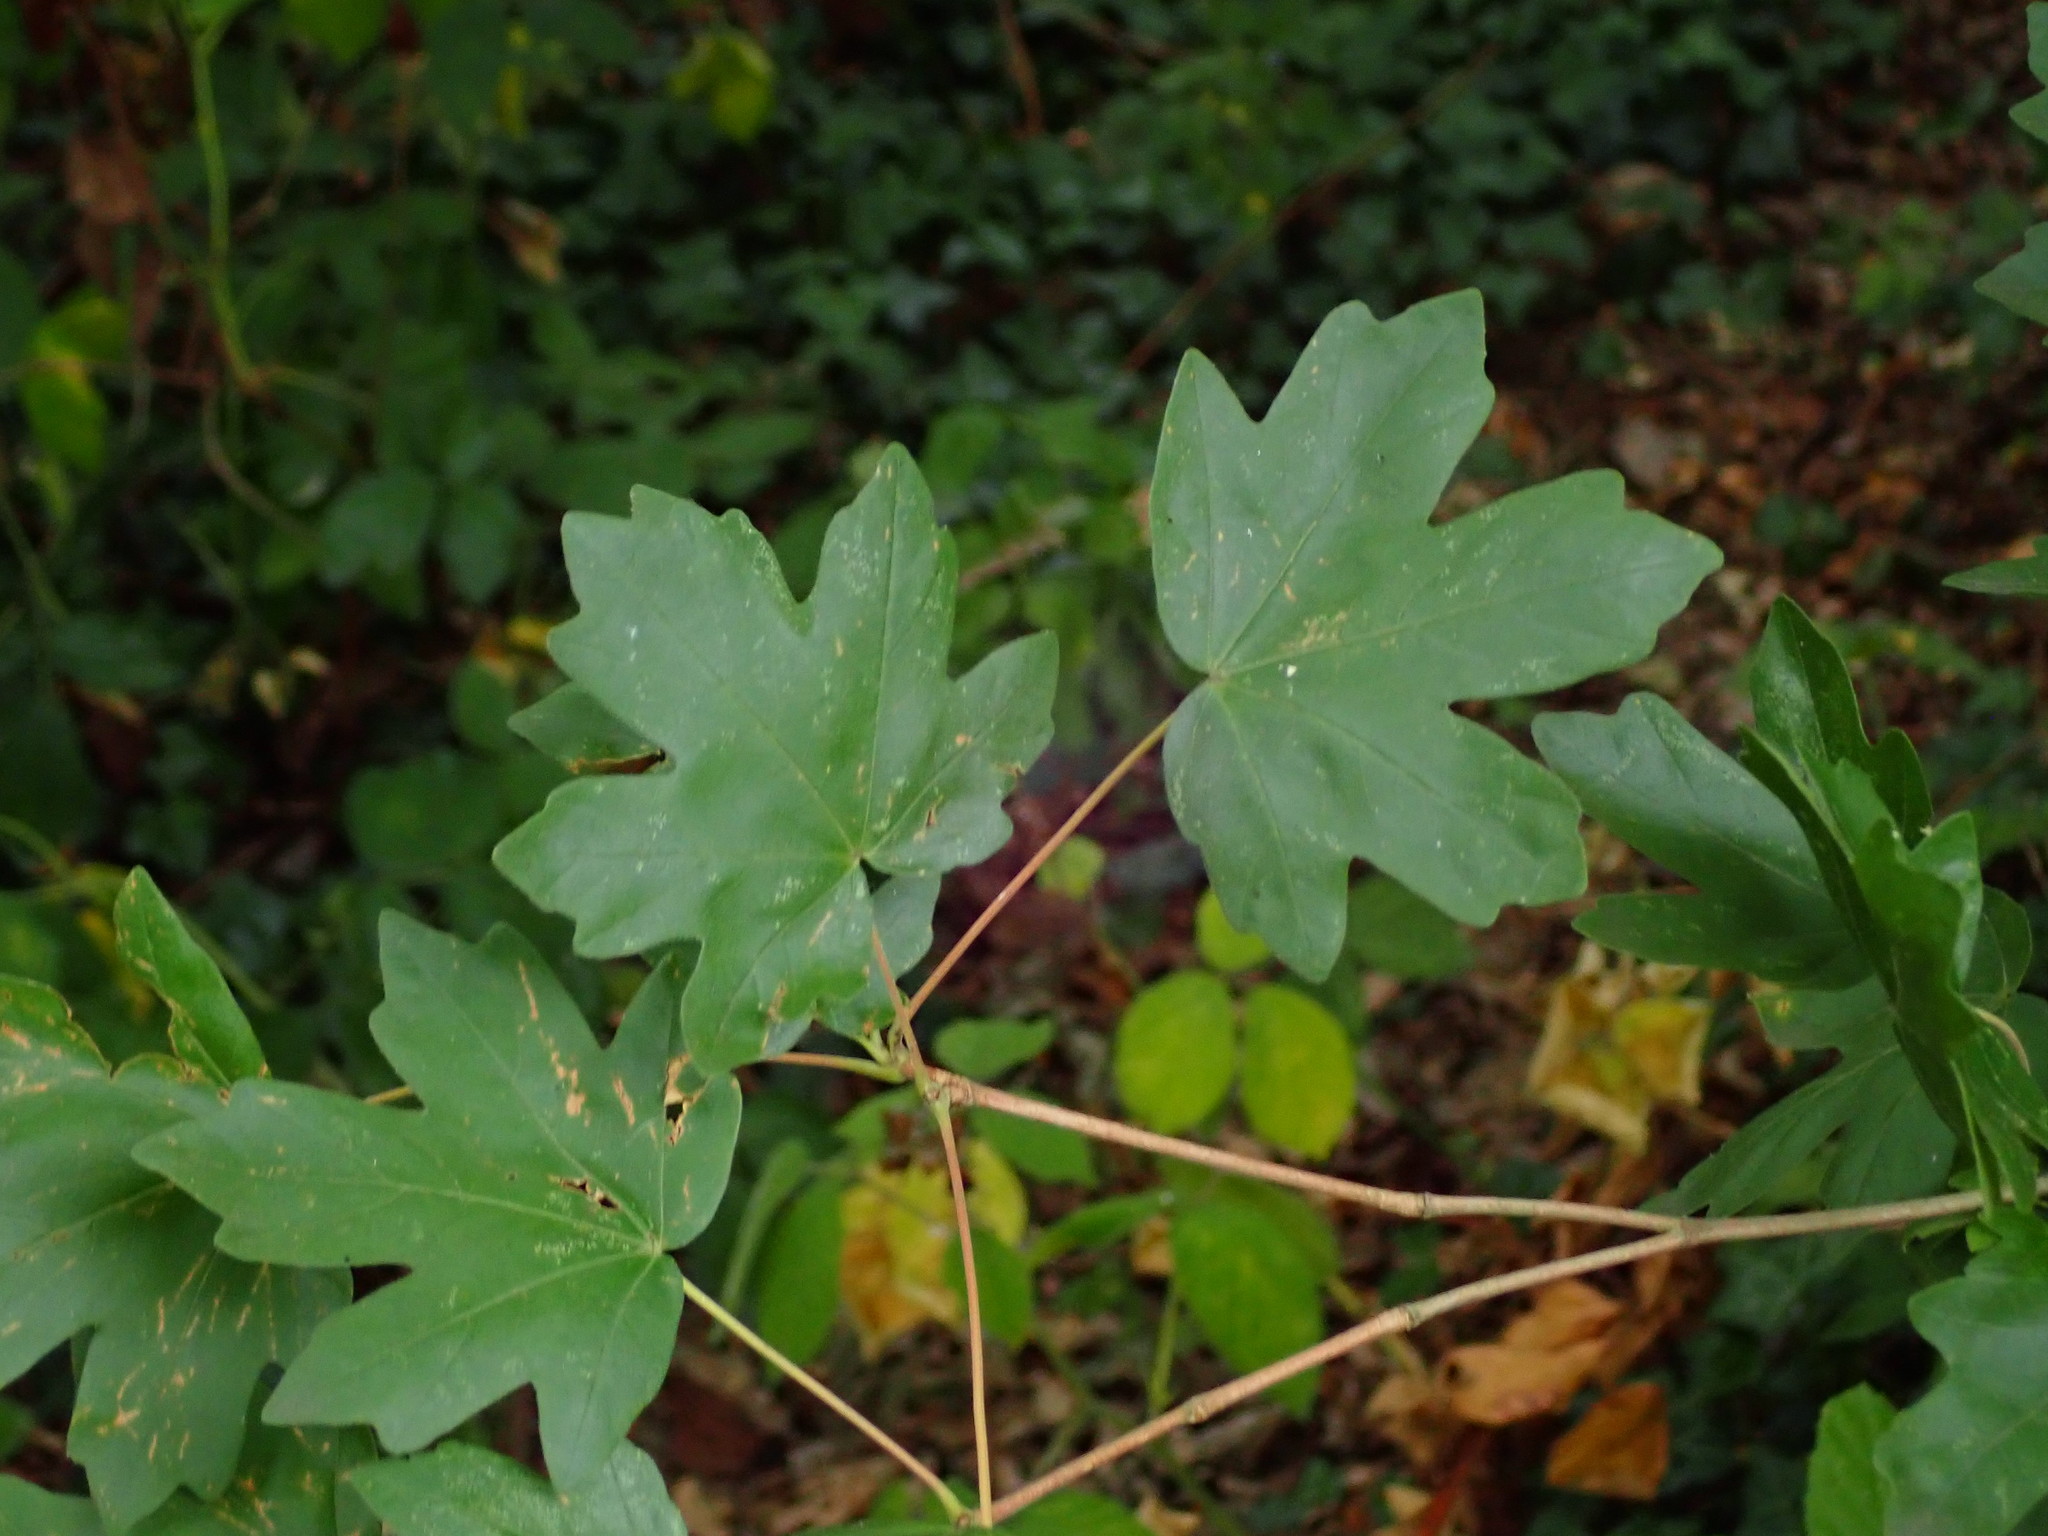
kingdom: Plantae
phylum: Tracheophyta
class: Magnoliopsida
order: Sapindales
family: Sapindaceae
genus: Acer
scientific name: Acer campestre
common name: Field maple
